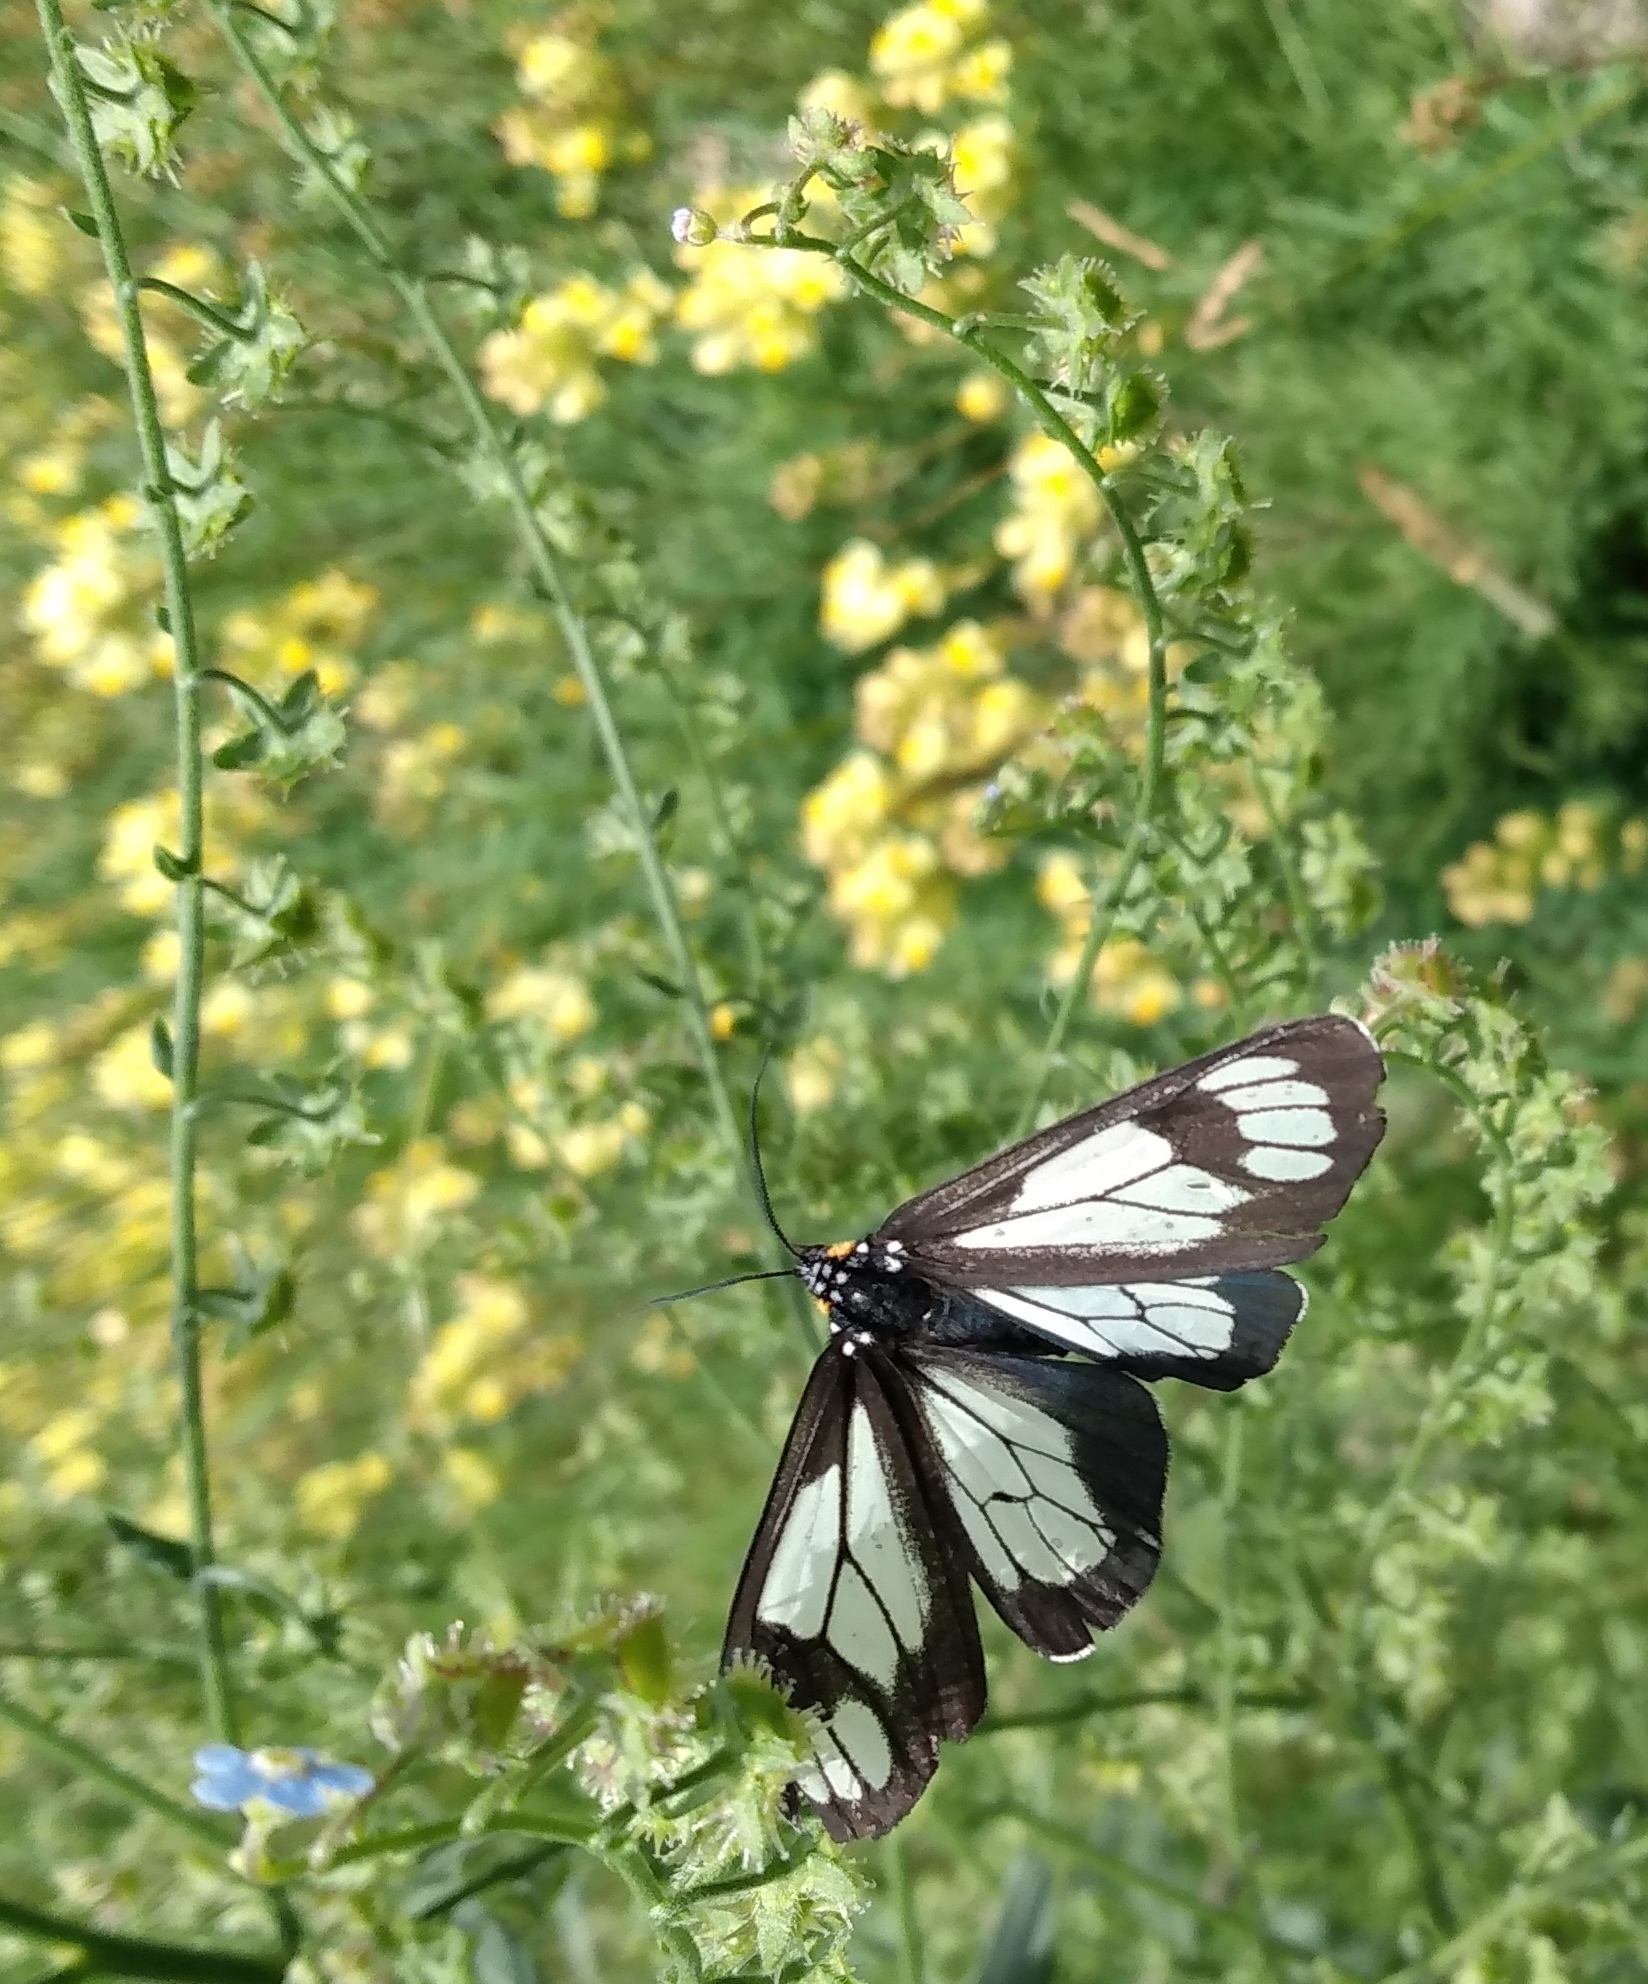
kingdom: Animalia
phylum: Arthropoda
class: Insecta
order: Lepidoptera
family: Erebidae
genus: Gnophaela
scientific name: Gnophaela vermiculata
